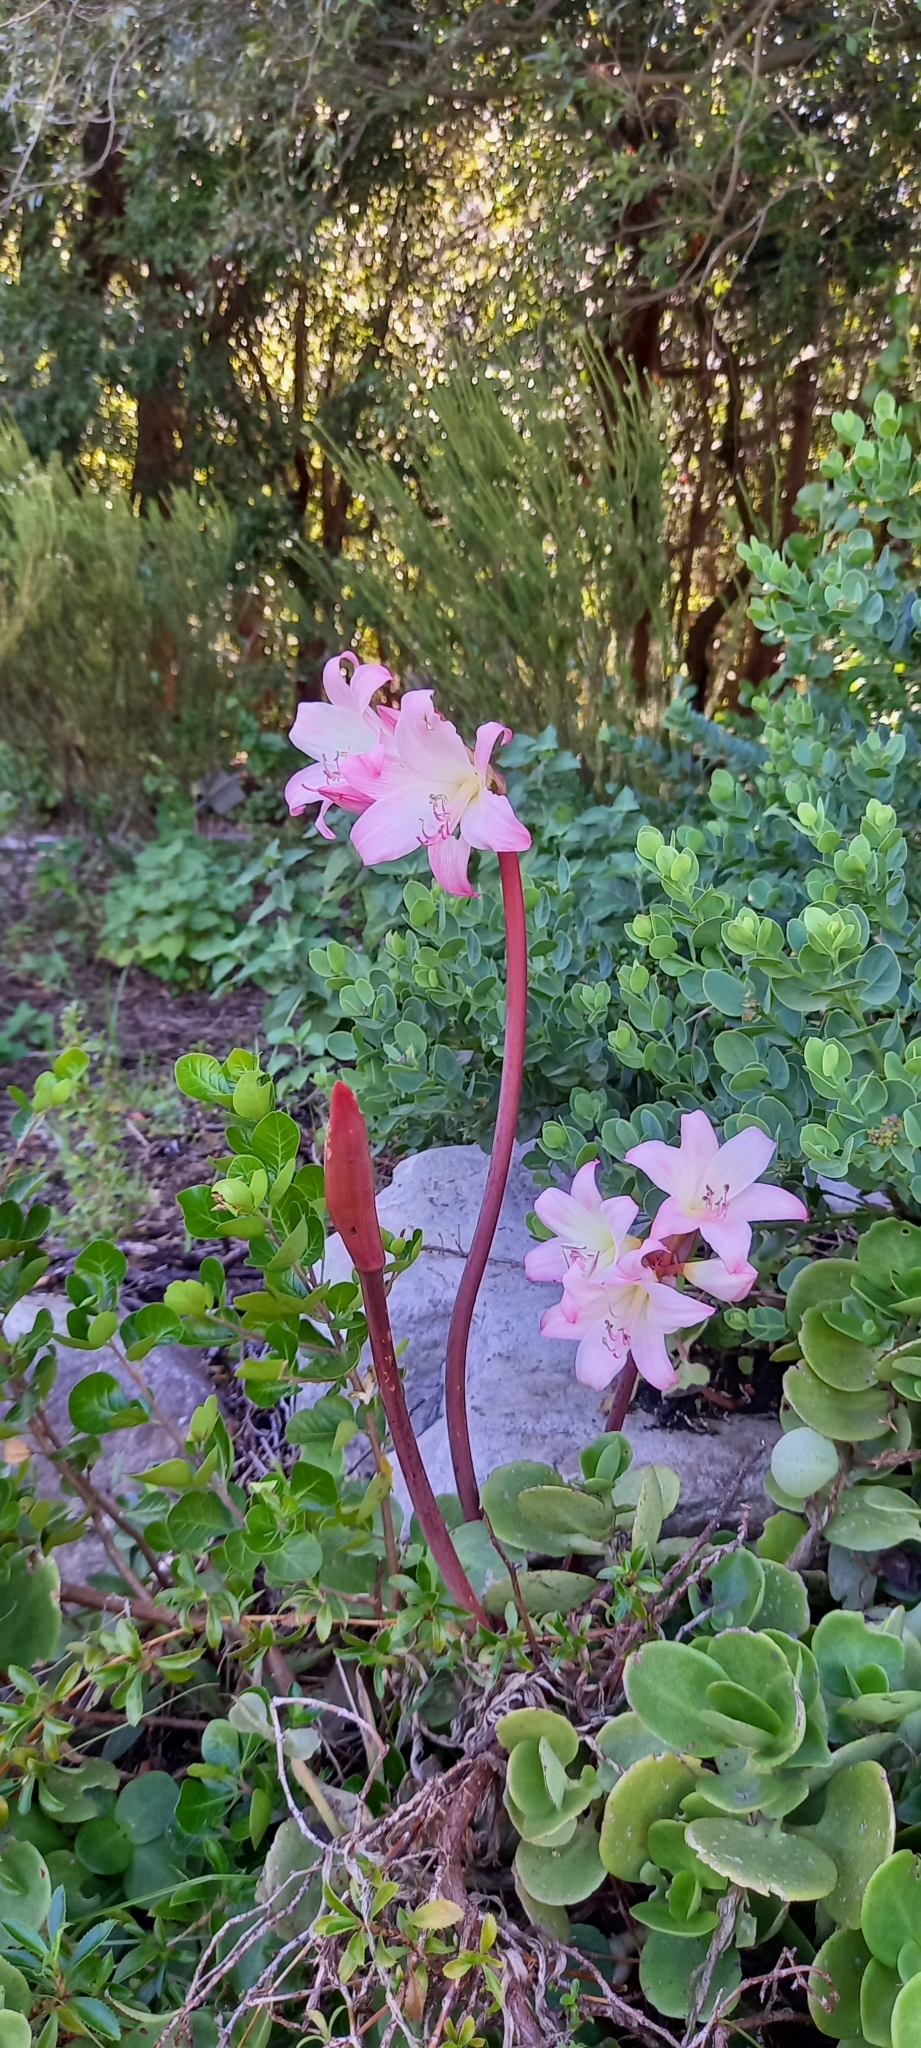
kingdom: Plantae
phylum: Tracheophyta
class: Liliopsida
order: Asparagales
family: Amaryllidaceae
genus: Amaryllis
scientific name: Amaryllis belladonna
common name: Jersey lily
